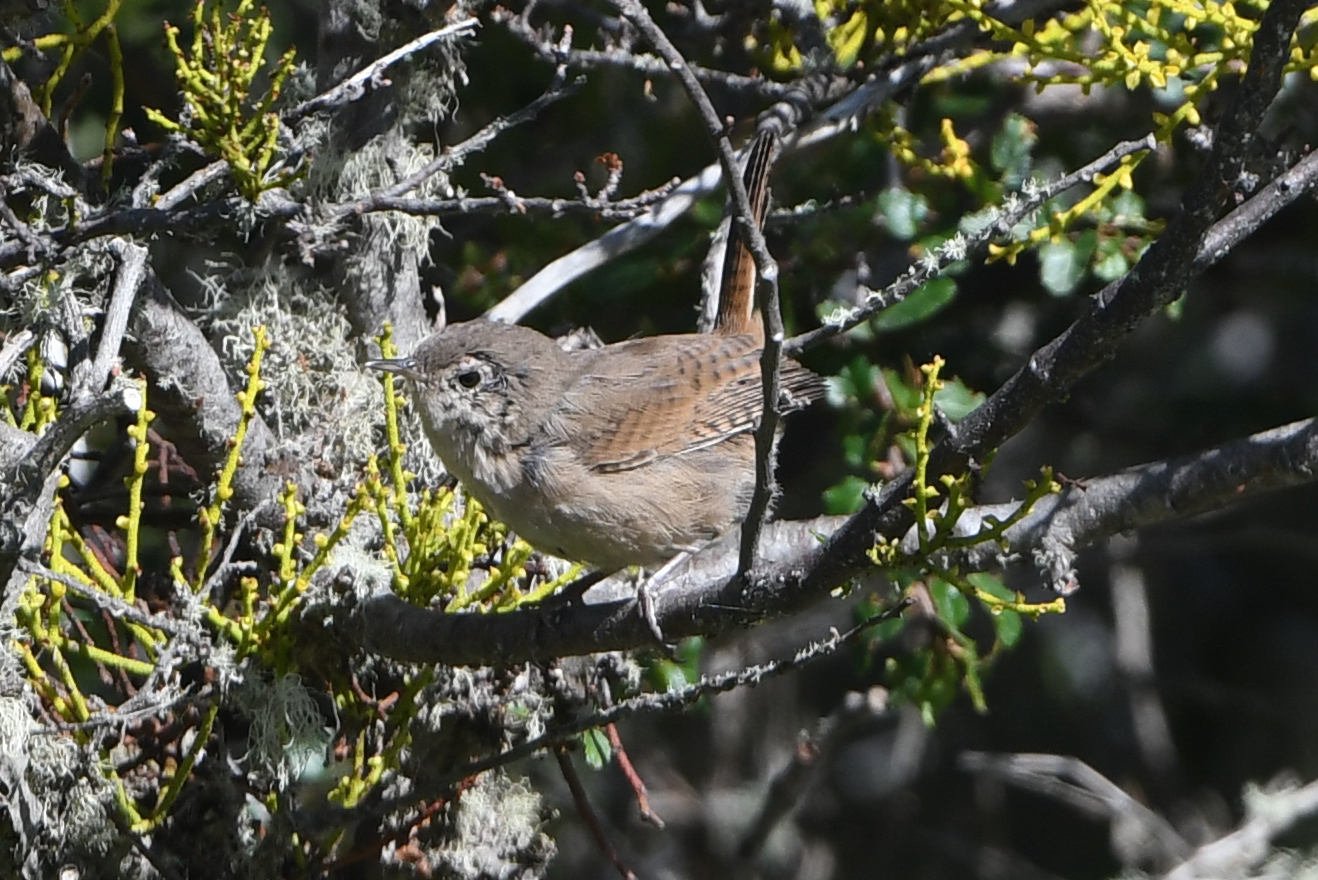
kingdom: Animalia
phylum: Chordata
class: Aves
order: Passeriformes
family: Troglodytidae
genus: Troglodytes
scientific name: Troglodytes aedon
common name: House wren
